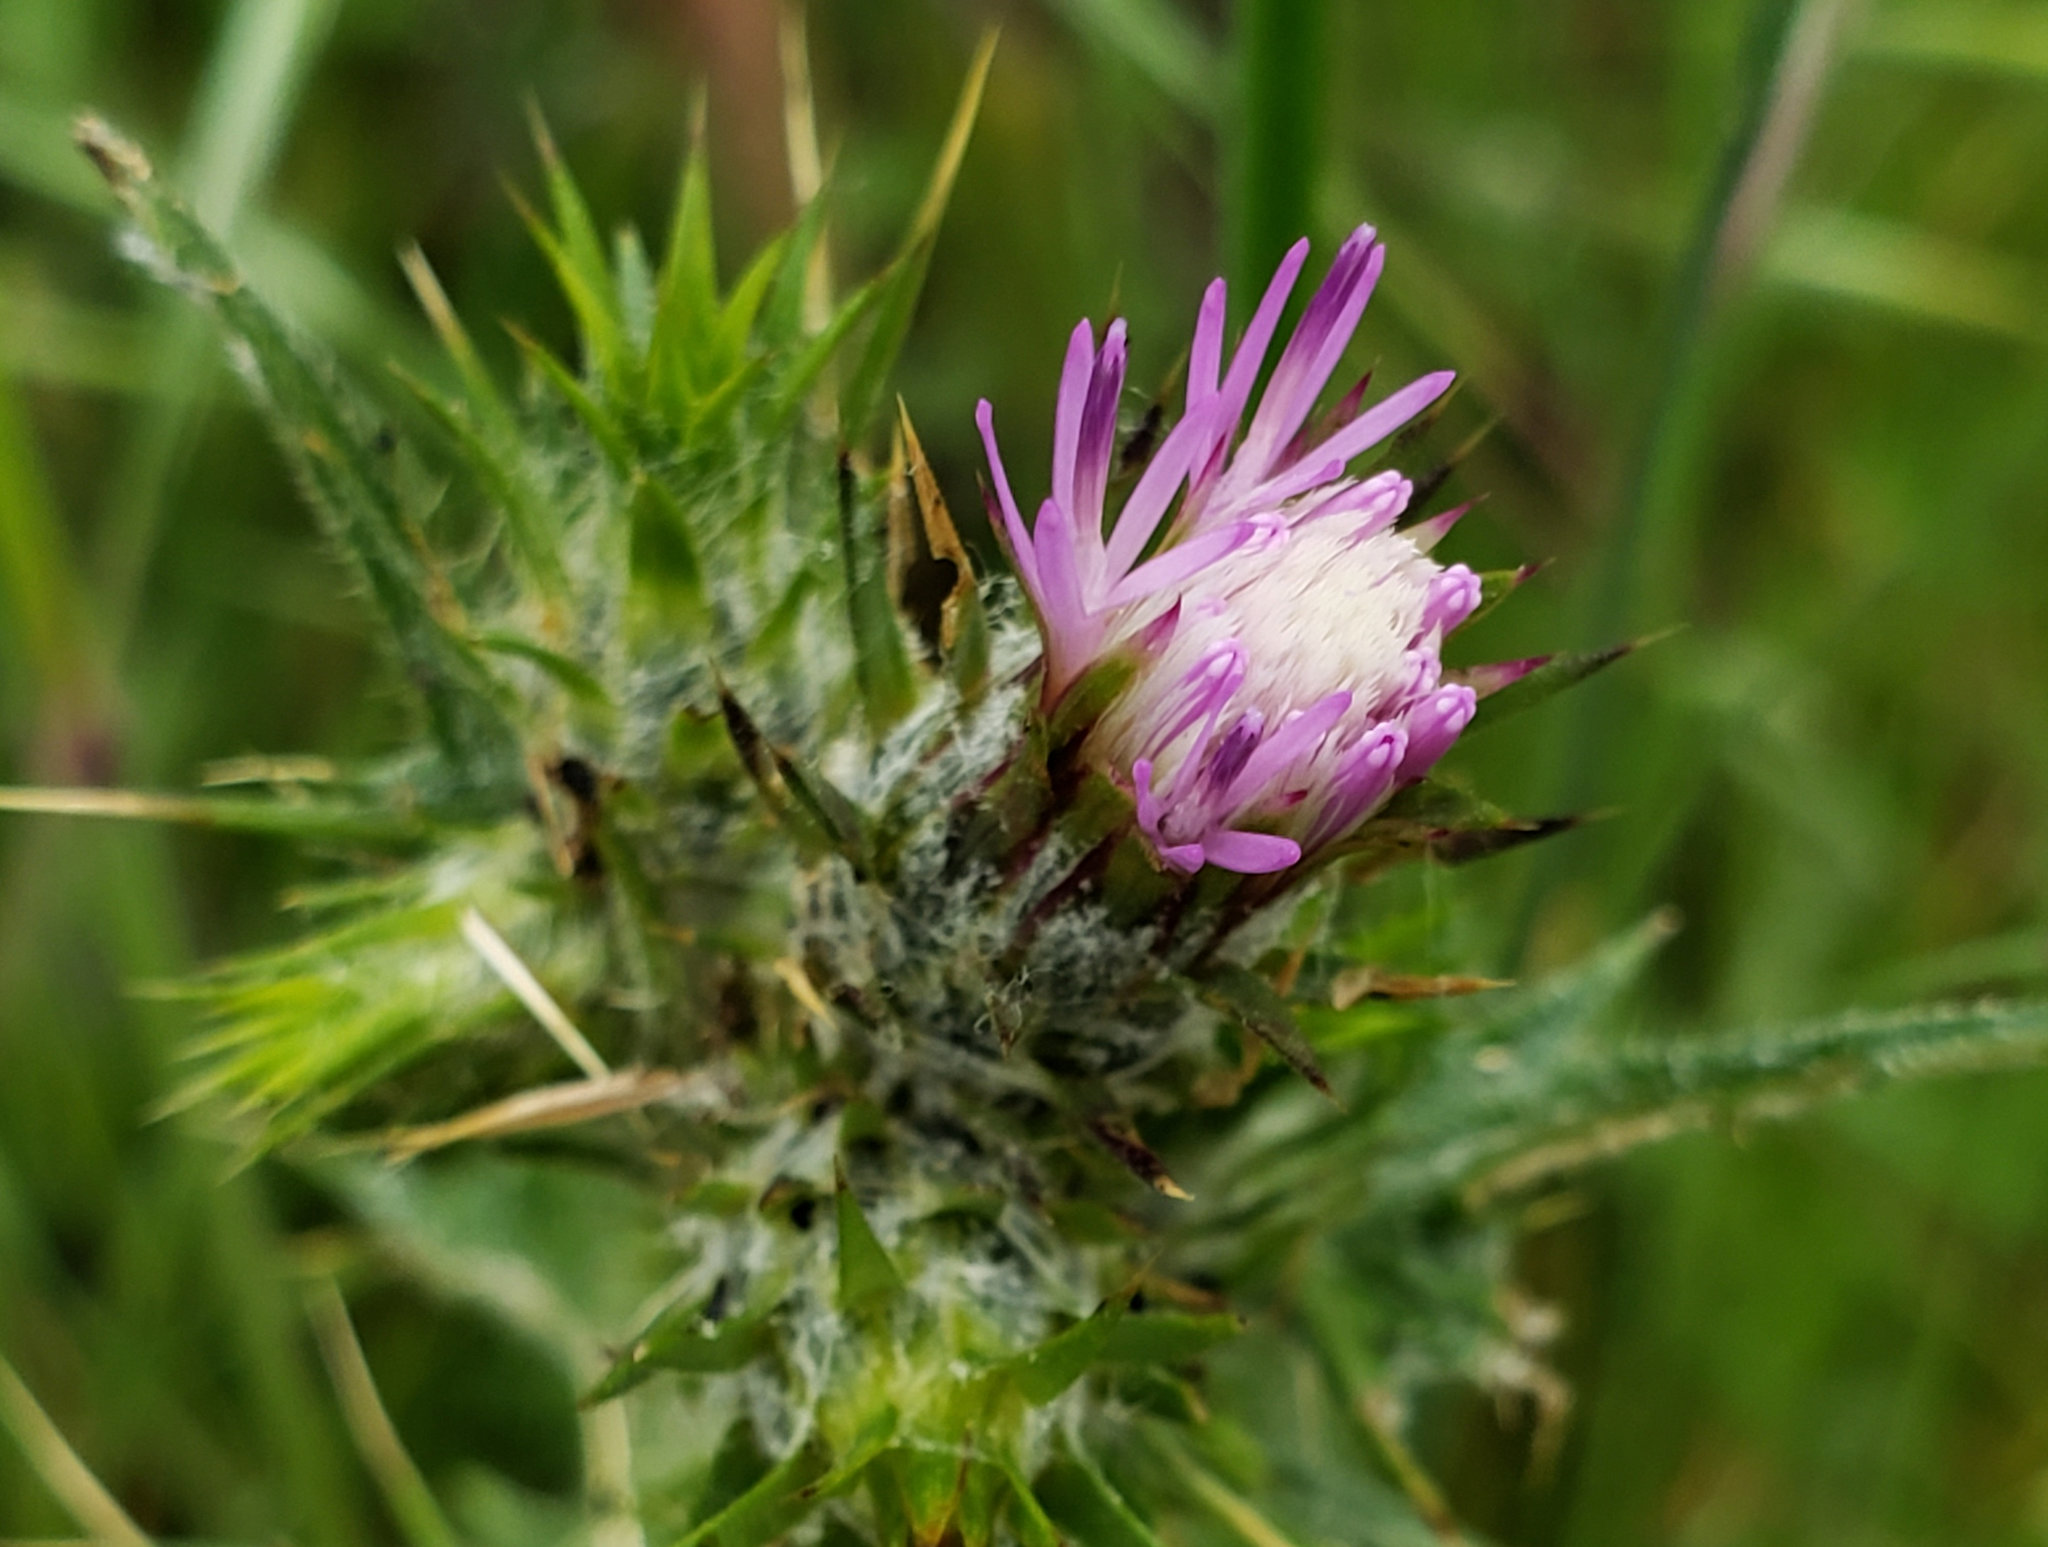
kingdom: Plantae
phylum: Tracheophyta
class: Magnoliopsida
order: Asterales
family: Asteraceae
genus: Carduus
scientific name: Carduus pycnocephalus
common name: Plymouth thistle
